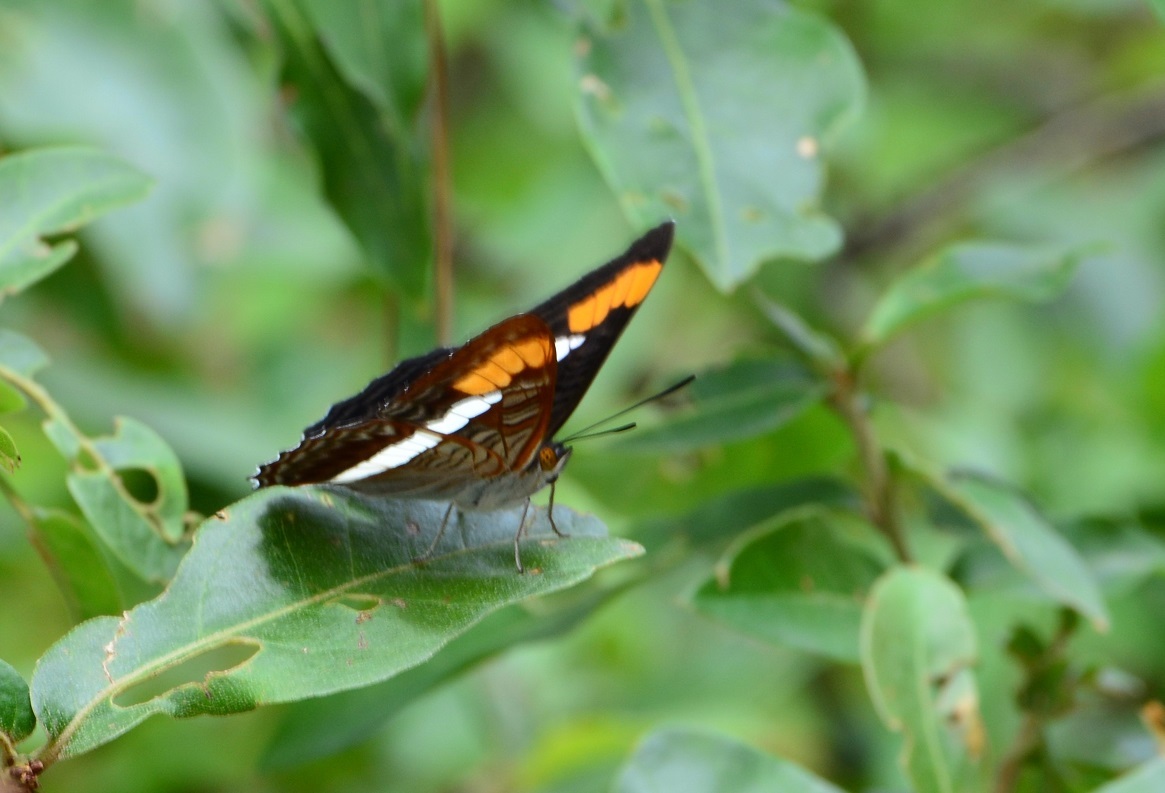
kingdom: Animalia
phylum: Arthropoda
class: Insecta
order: Lepidoptera
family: Nymphalidae
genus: Limenitis
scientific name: Limenitis donysa
